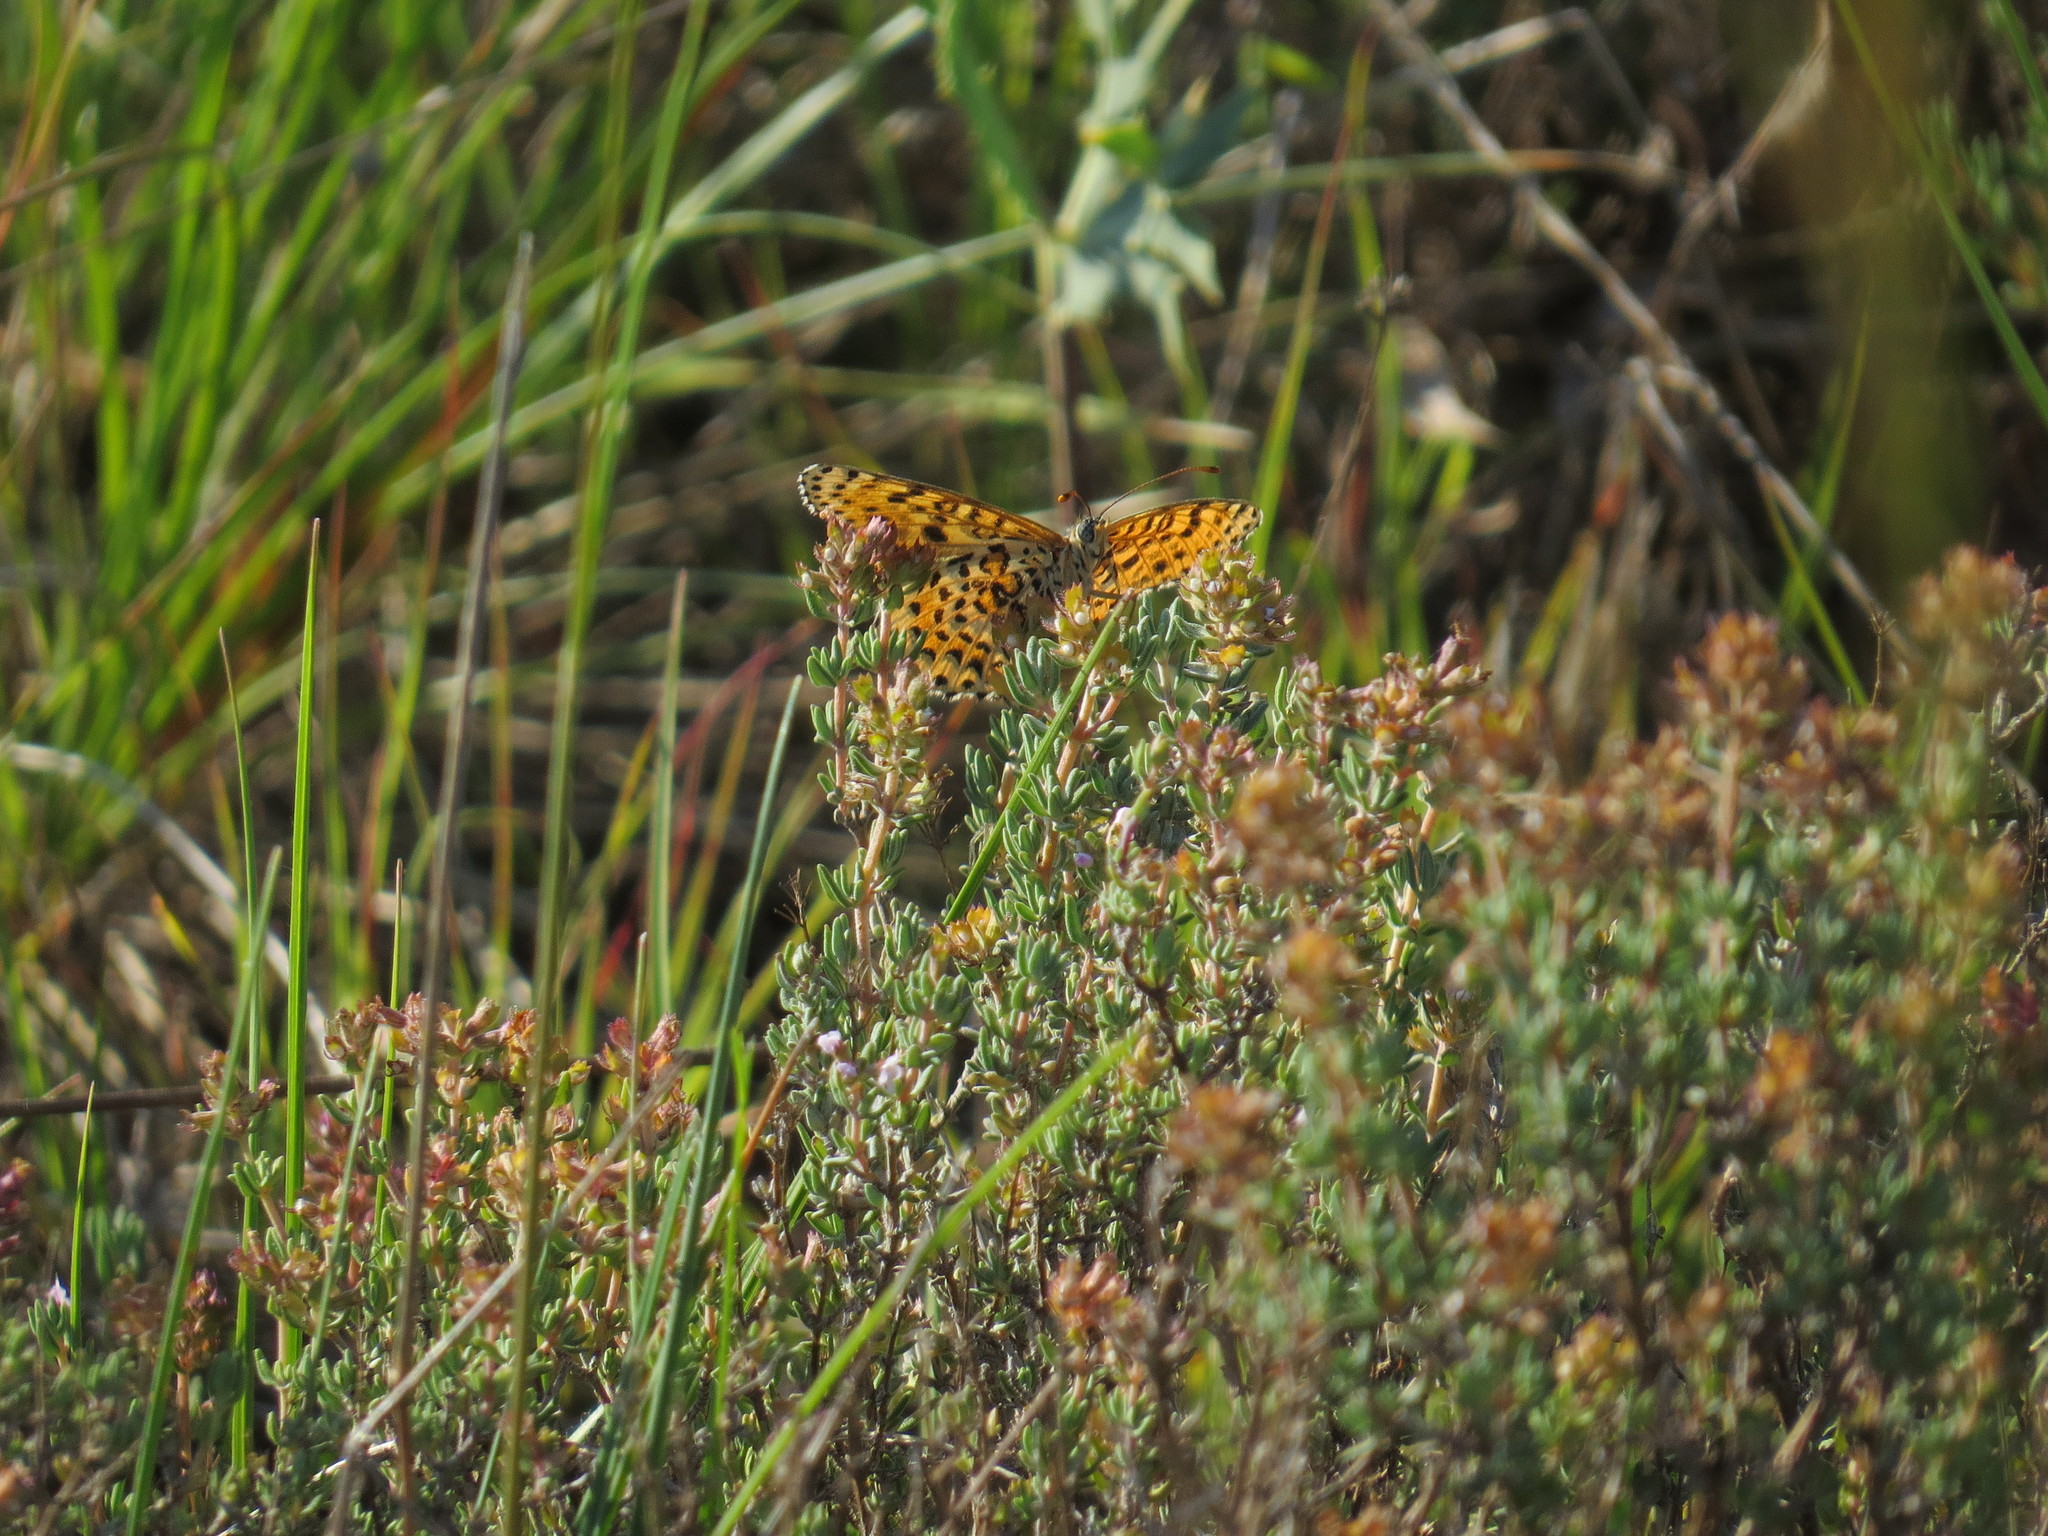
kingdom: Animalia
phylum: Arthropoda
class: Insecta
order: Lepidoptera
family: Nymphalidae
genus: Melitaea
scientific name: Melitaea didyma
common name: Spotted fritillary
